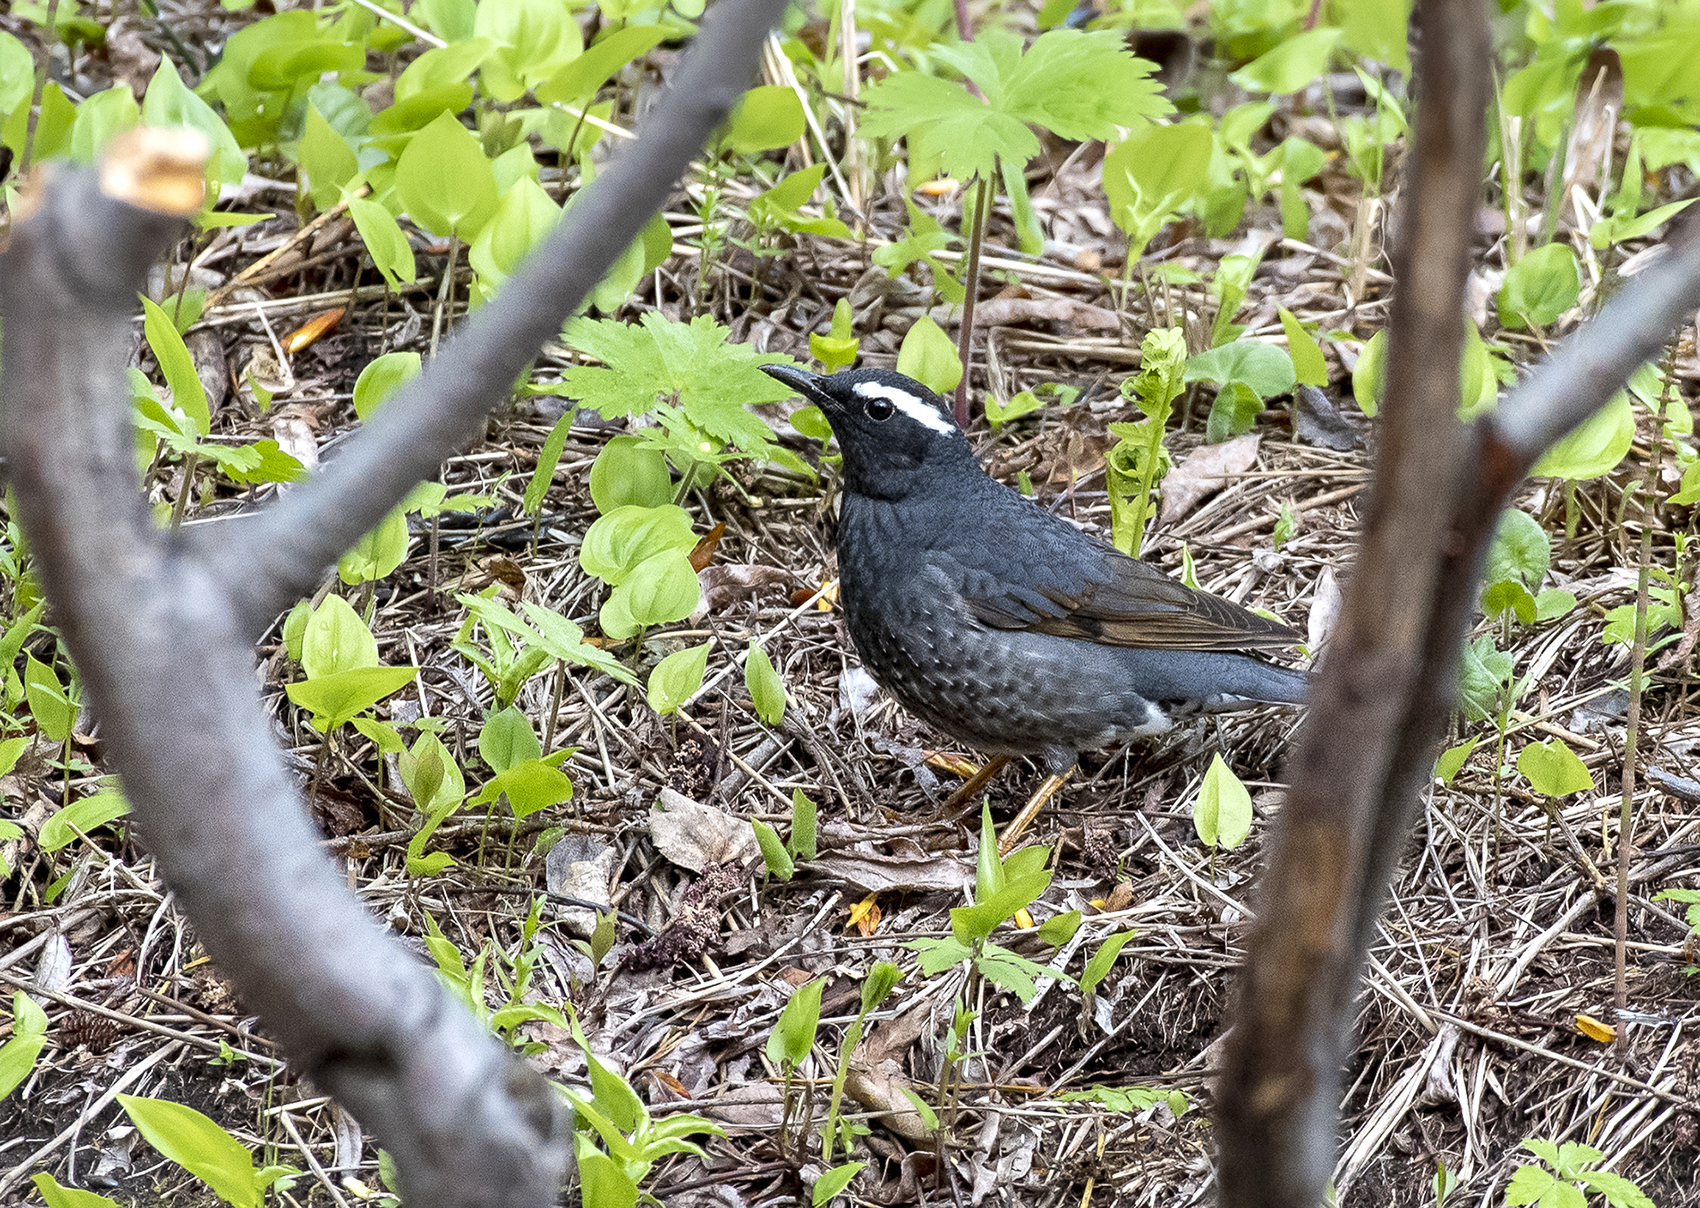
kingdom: Animalia
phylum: Chordata
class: Aves
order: Passeriformes
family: Turdidae
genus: Geokichla
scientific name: Geokichla sibirica
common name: Siberian thrush
